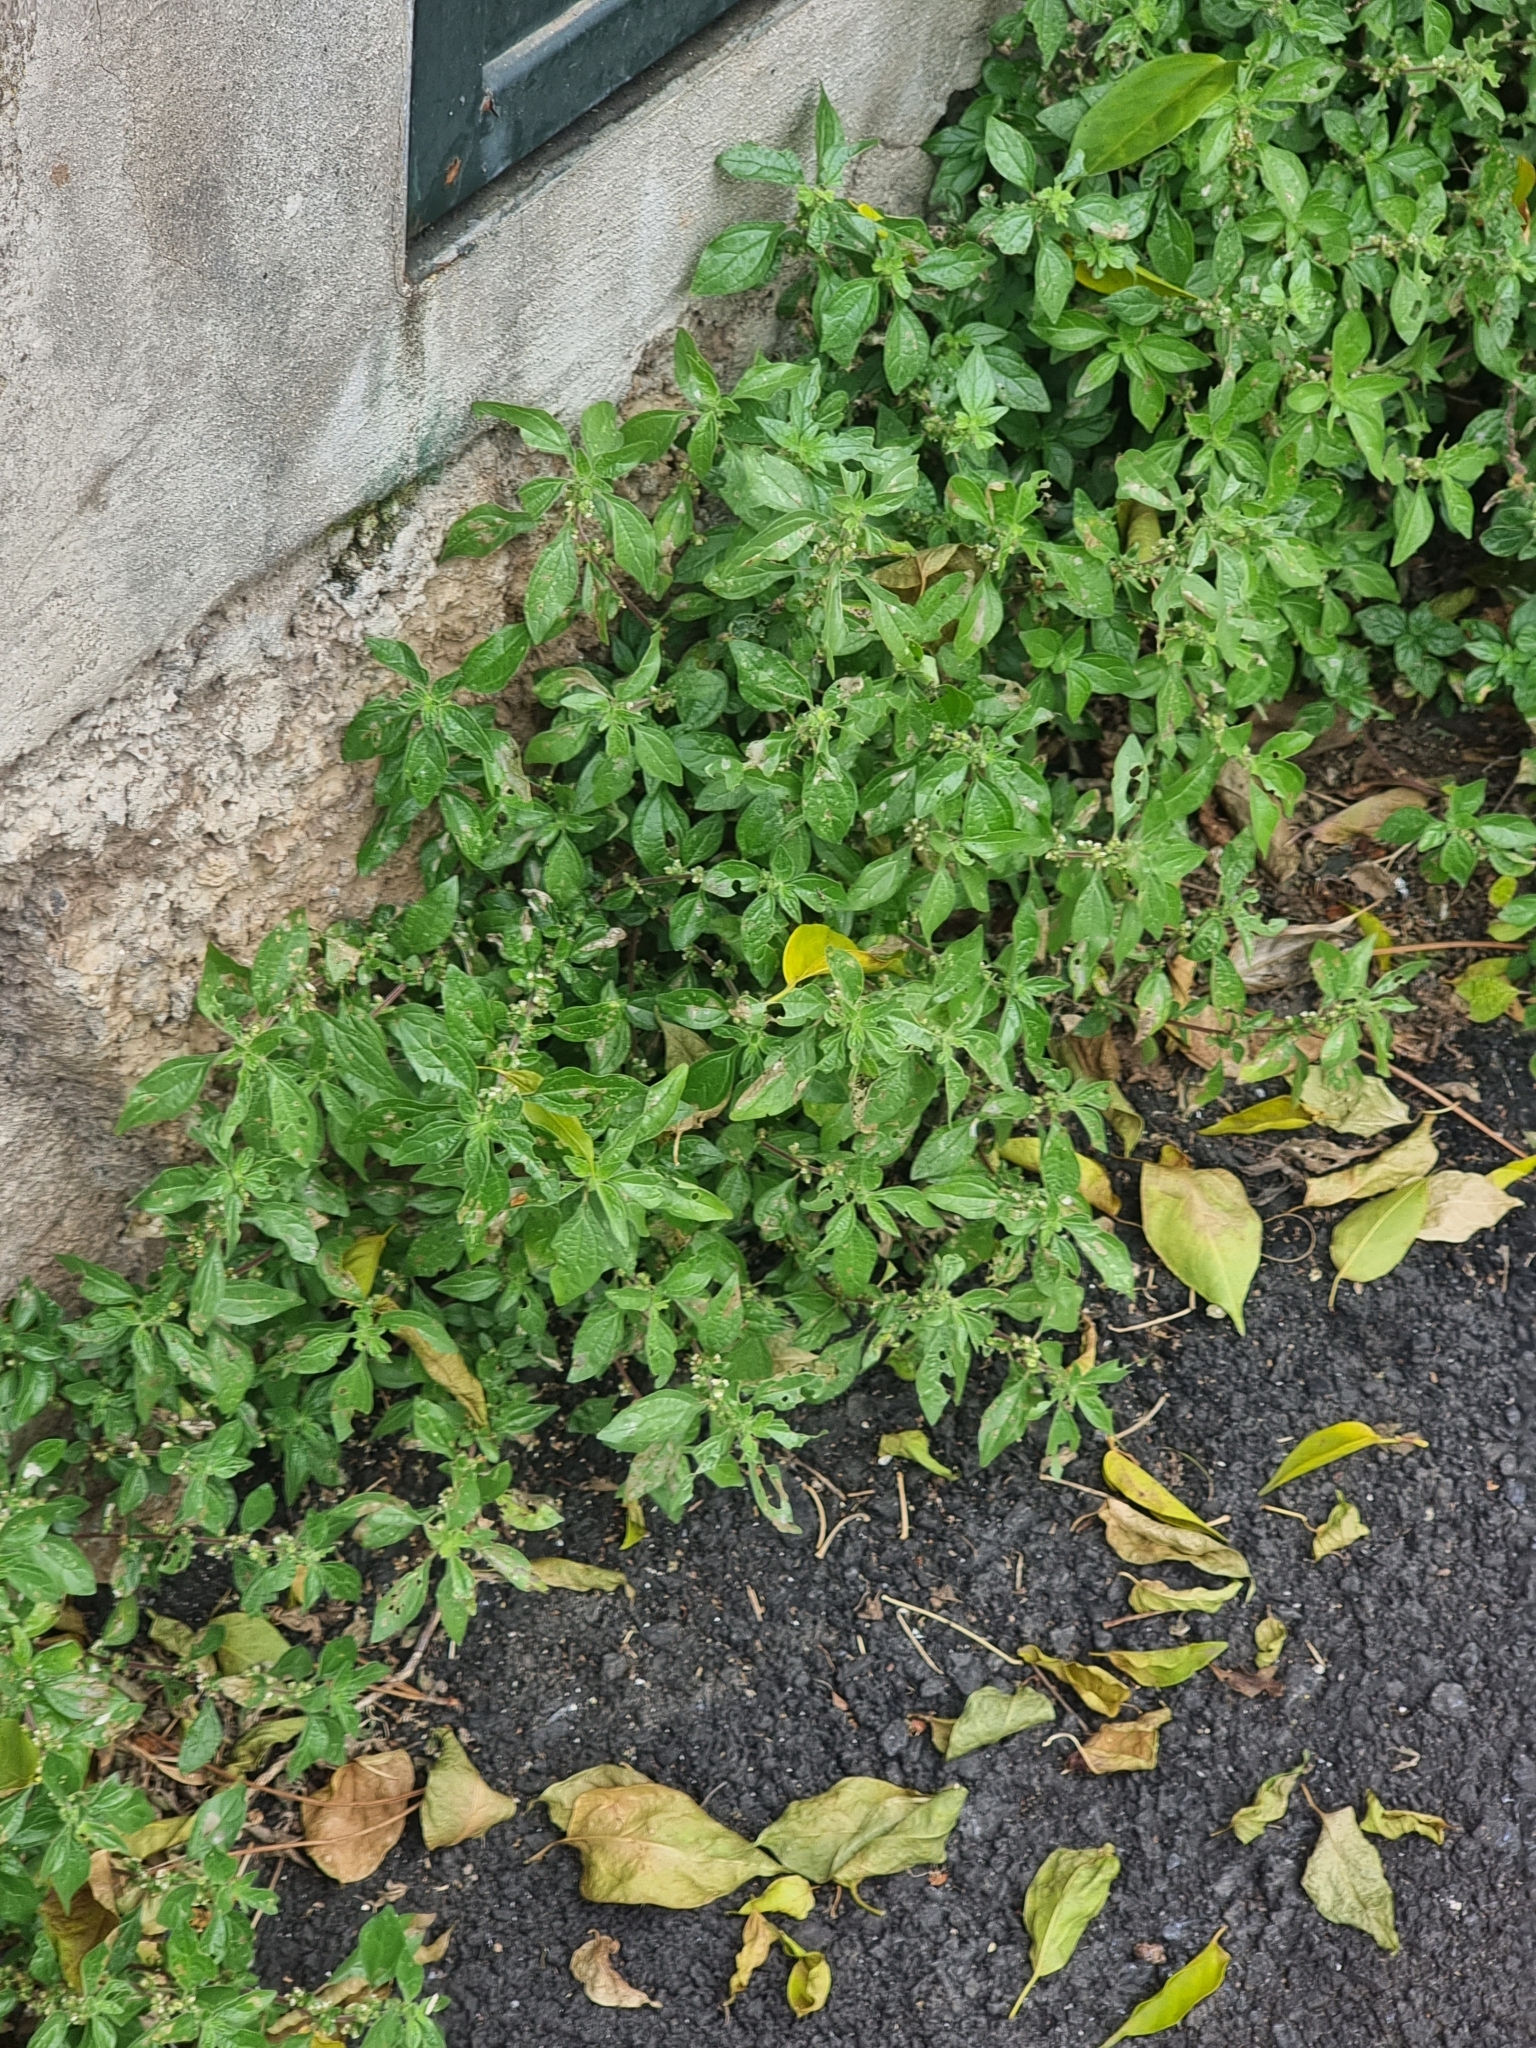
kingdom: Plantae
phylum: Tracheophyta
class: Magnoliopsida
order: Rosales
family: Urticaceae
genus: Parietaria
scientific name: Parietaria judaica
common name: Pellitory-of-the-wall
